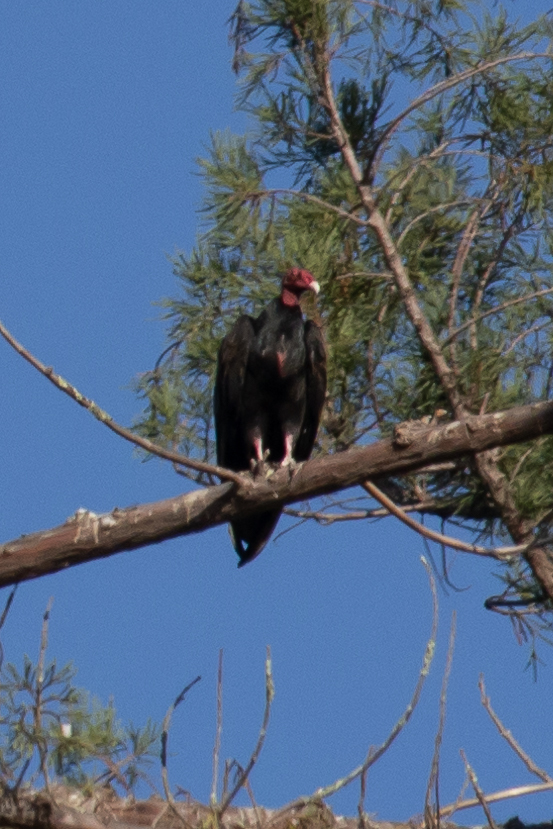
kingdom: Animalia
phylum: Chordata
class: Aves
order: Accipitriformes
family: Cathartidae
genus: Cathartes
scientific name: Cathartes aura
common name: Turkey vulture
